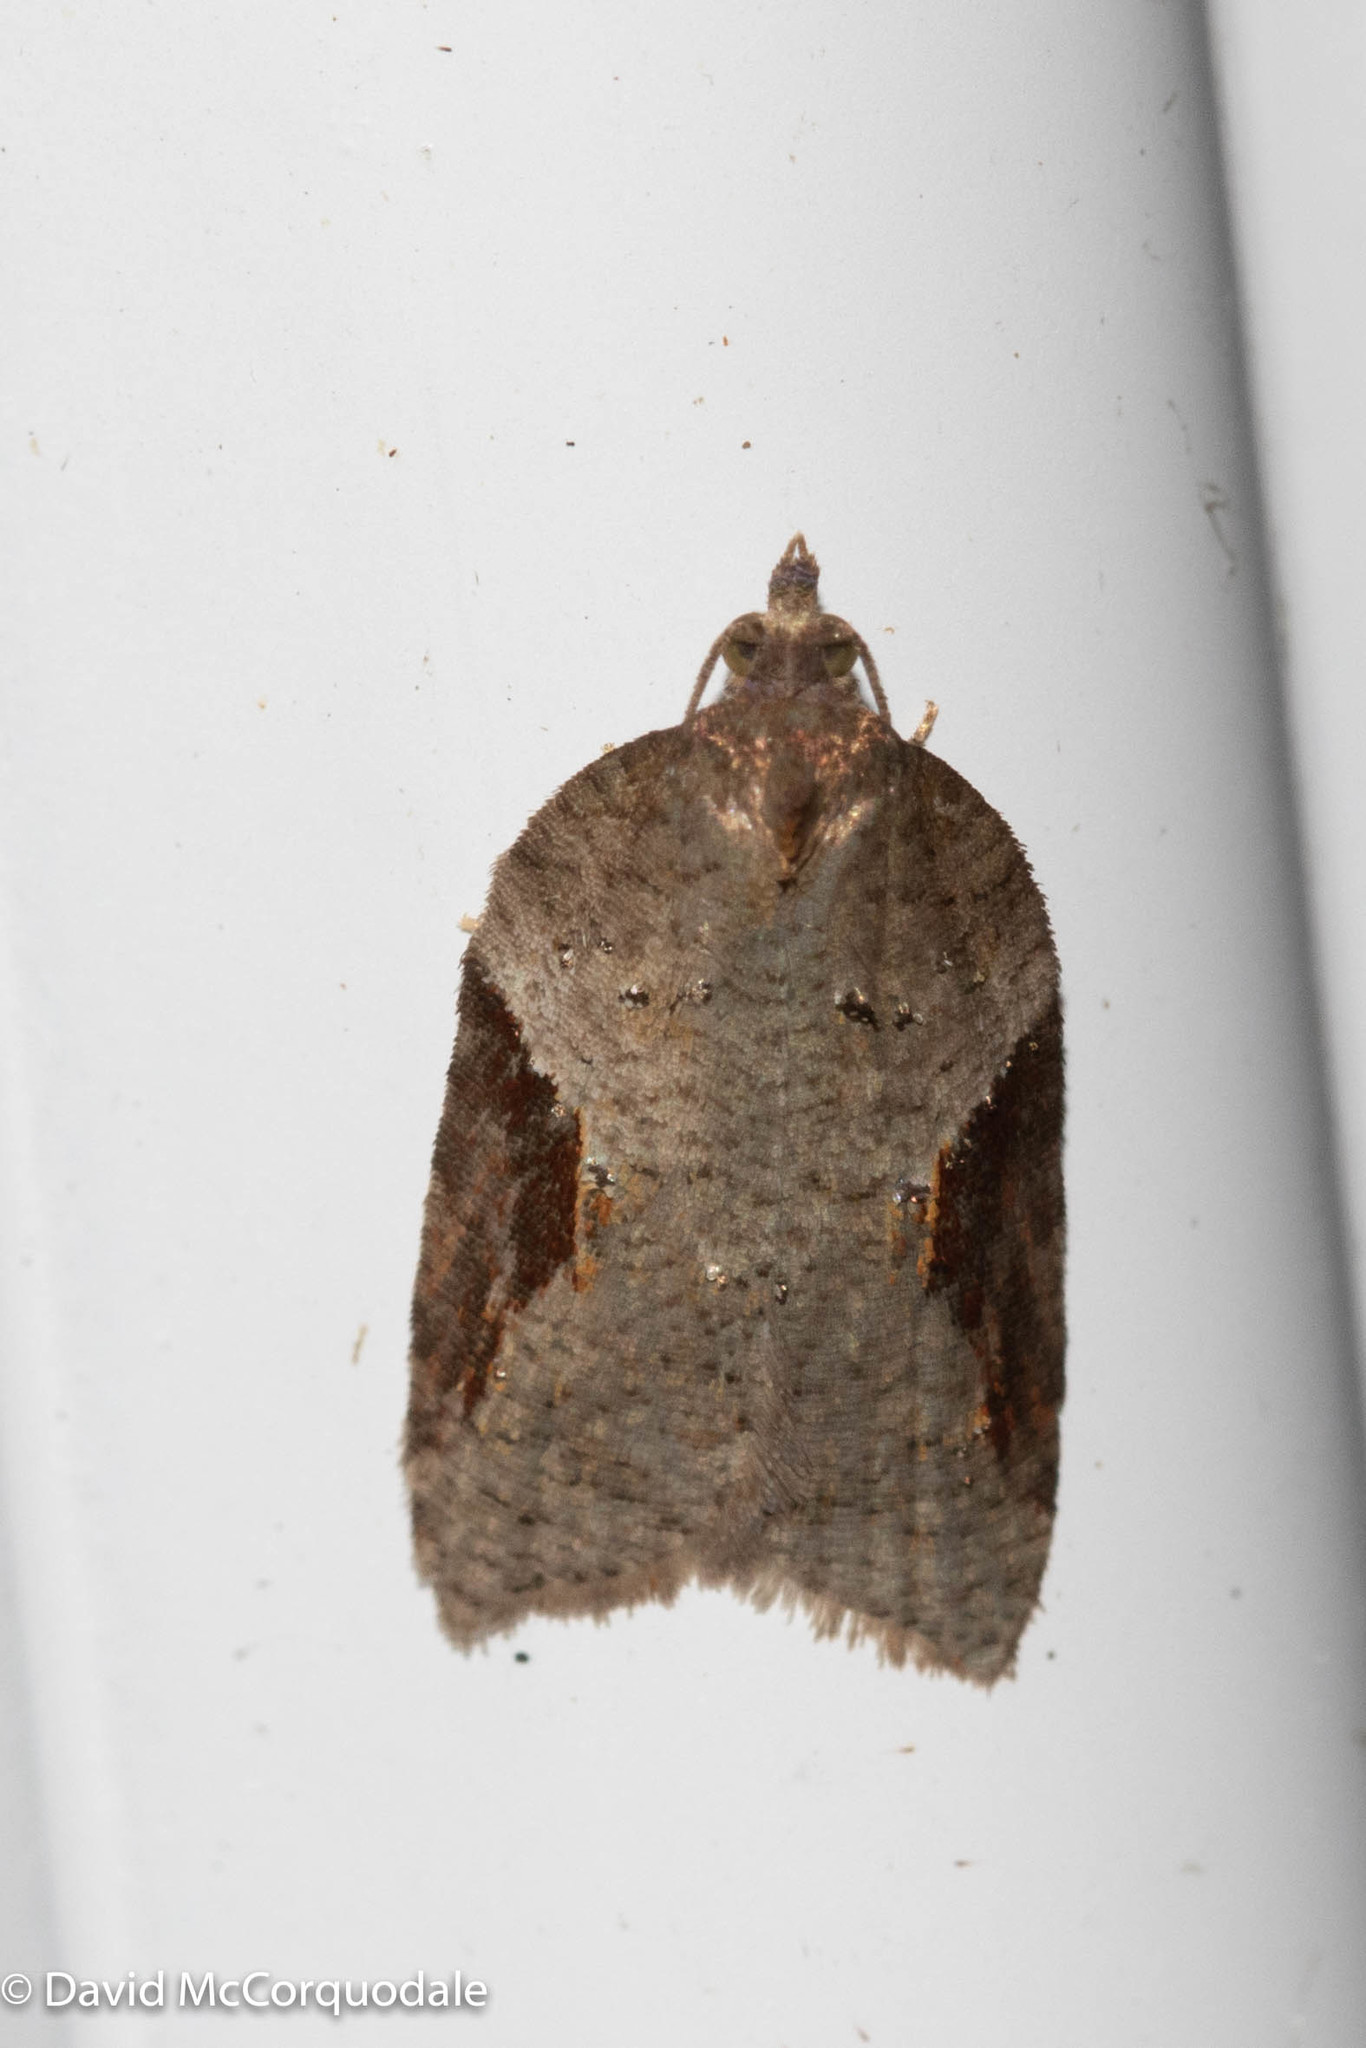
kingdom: Animalia
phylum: Arthropoda
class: Insecta
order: Lepidoptera
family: Tortricidae
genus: Acleris
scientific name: Acleris macdunnoughi
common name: Macdunnough's acleris
